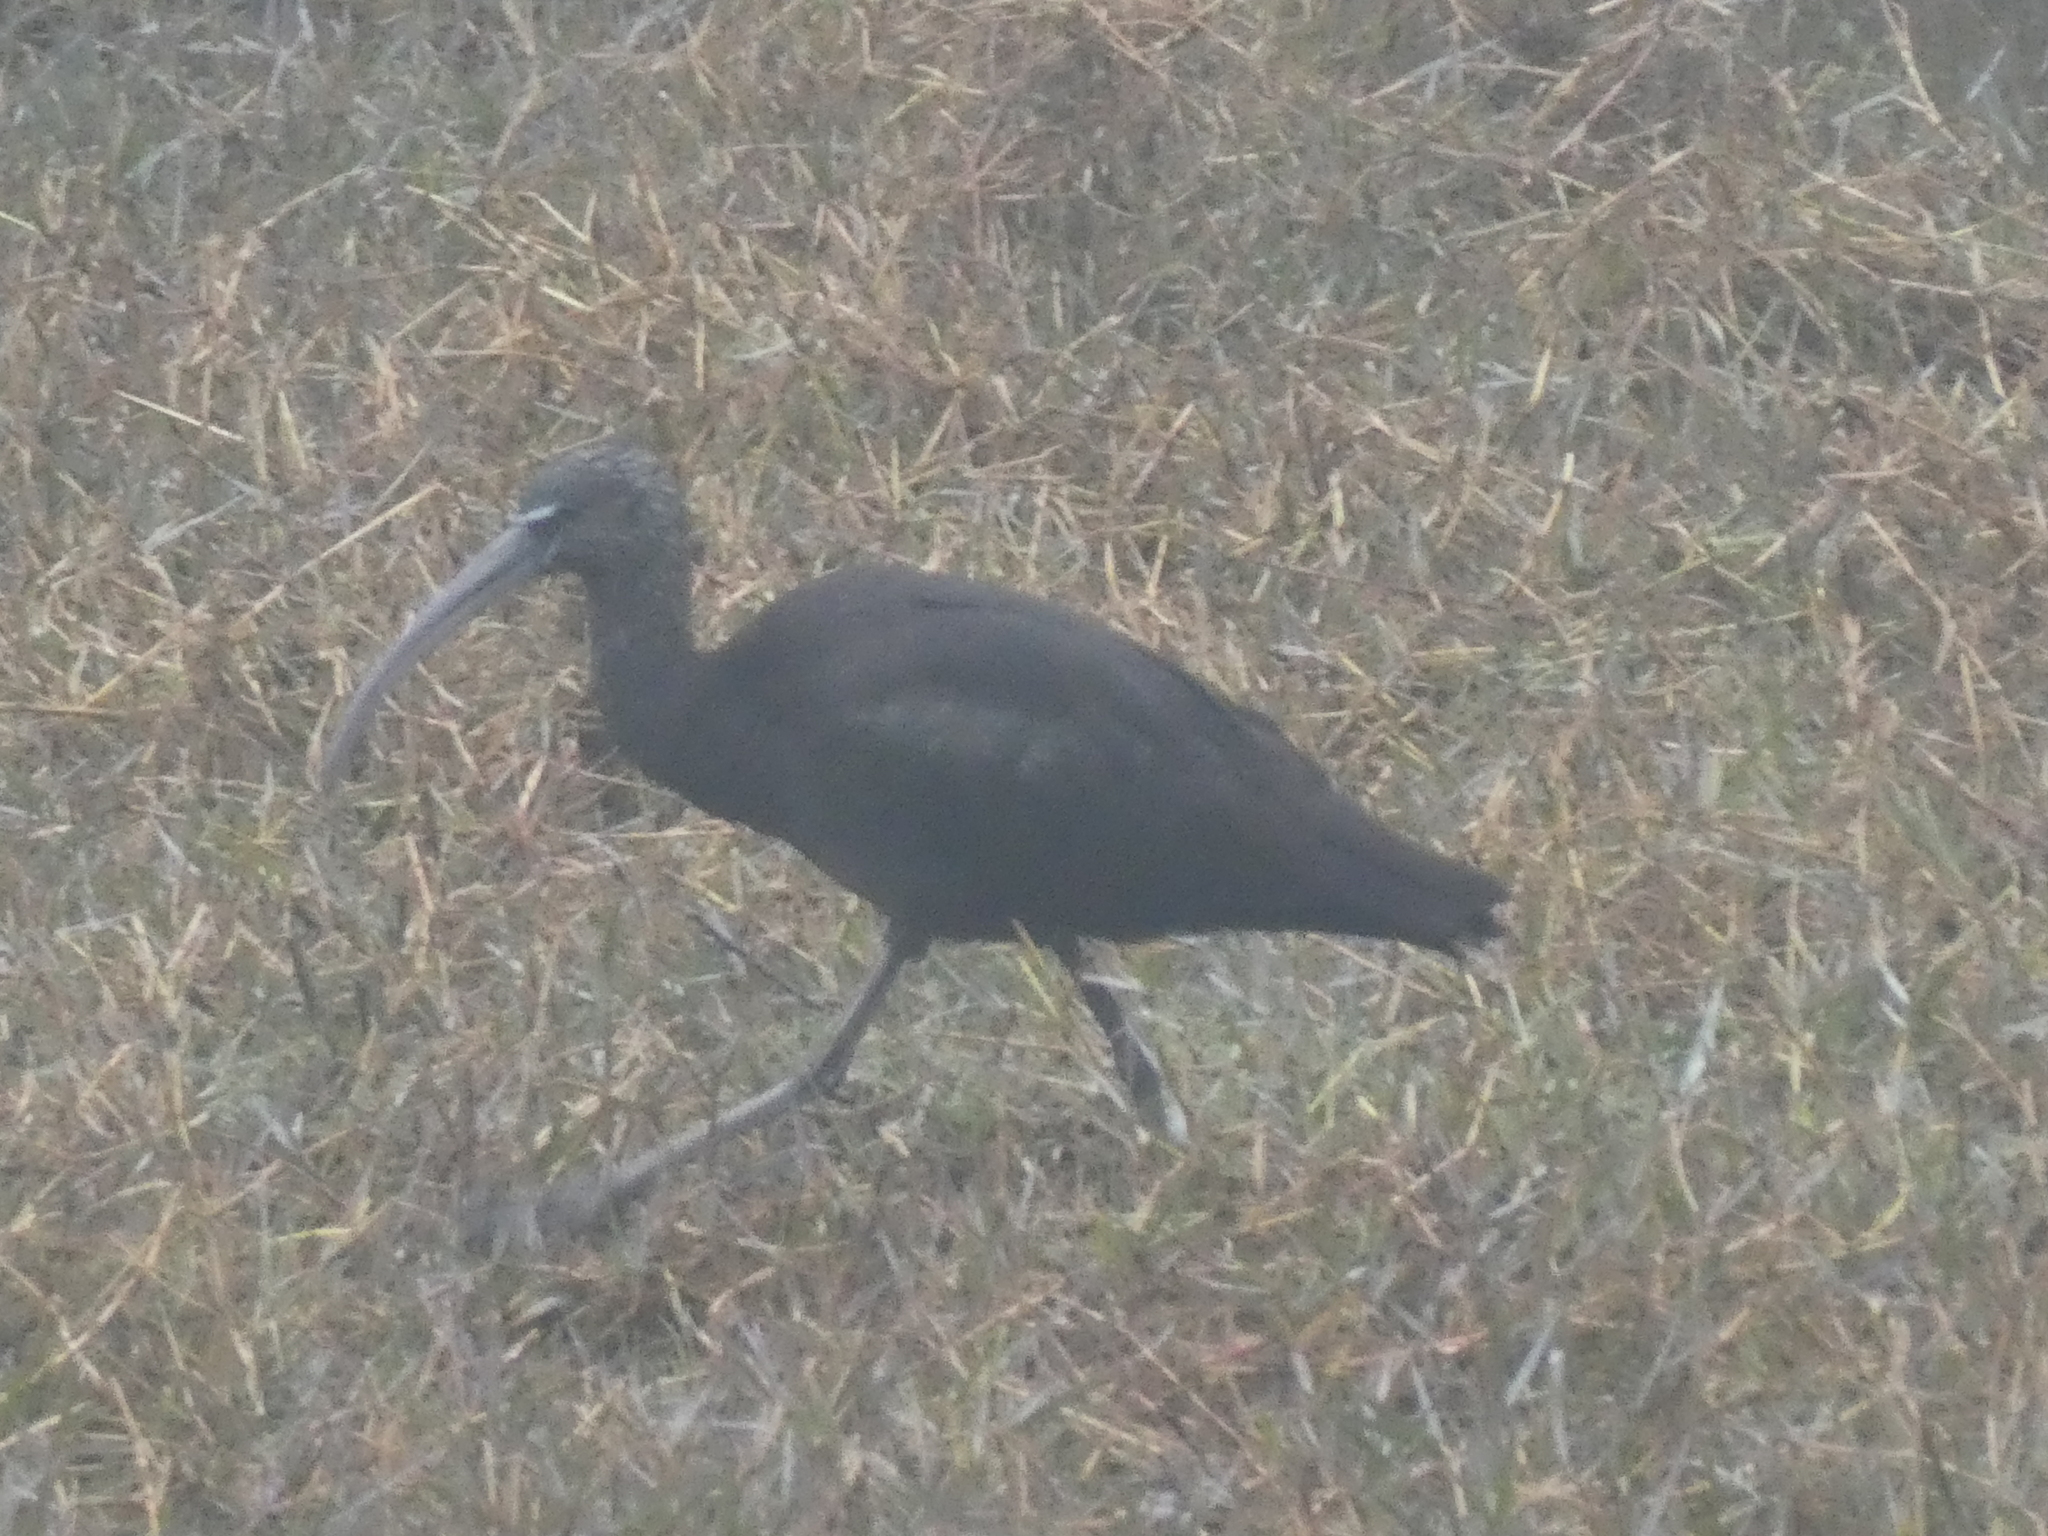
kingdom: Animalia
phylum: Chordata
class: Aves
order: Pelecaniformes
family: Threskiornithidae
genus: Plegadis
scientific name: Plegadis falcinellus
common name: Glossy ibis
